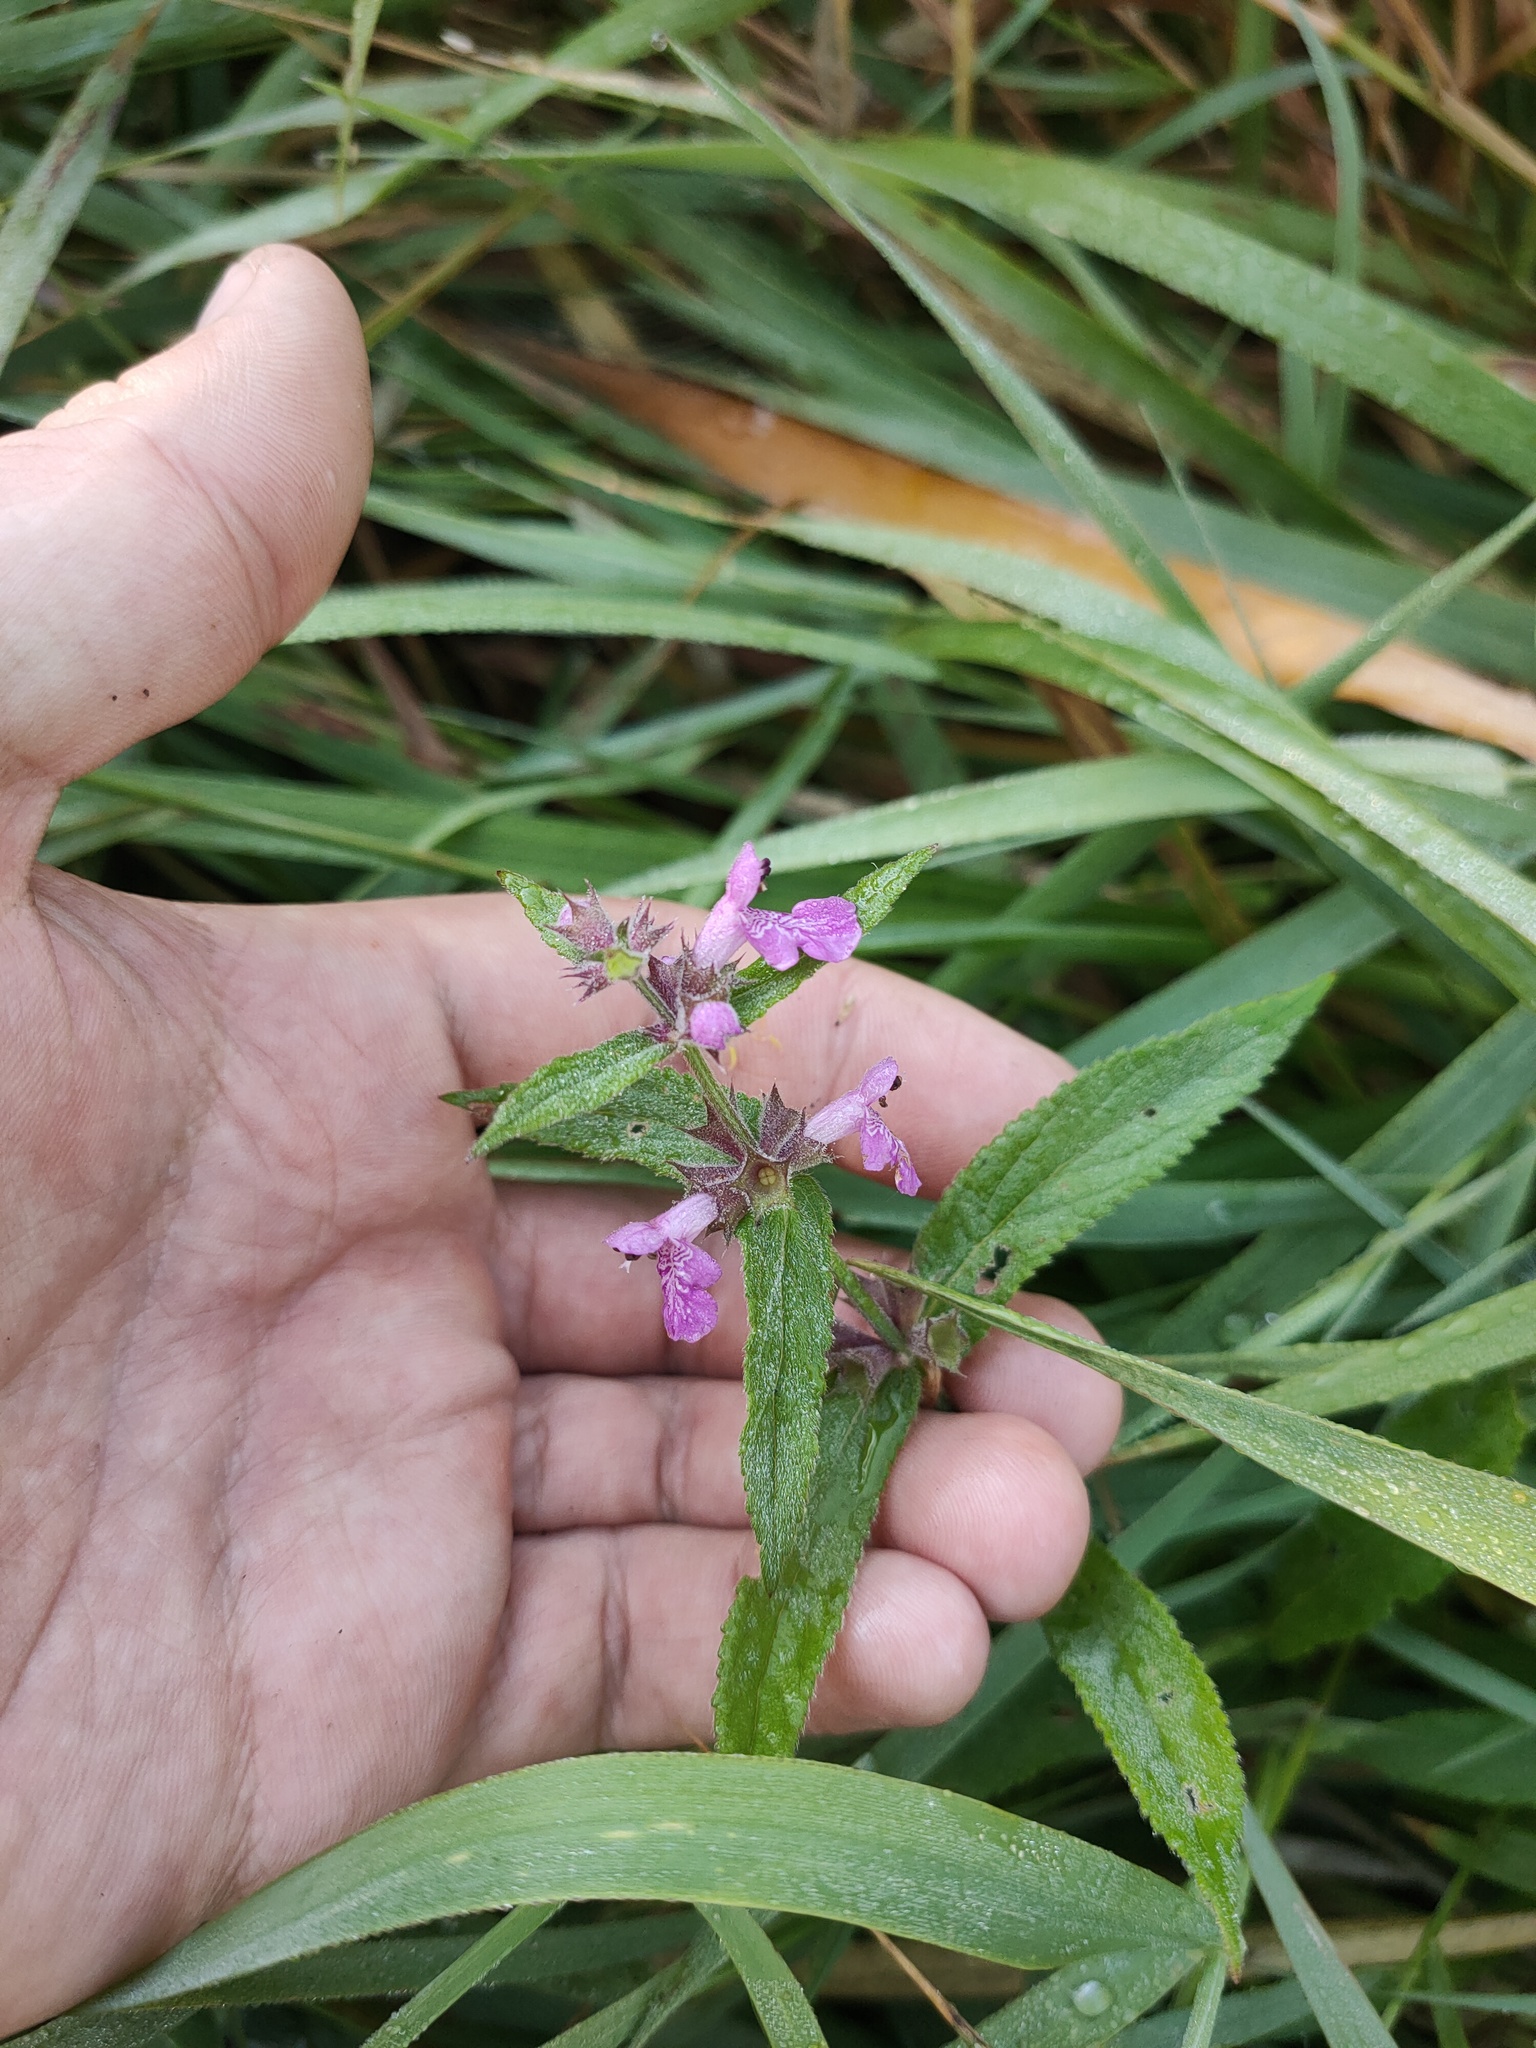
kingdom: Plantae
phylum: Tracheophyta
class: Magnoliopsida
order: Lamiales
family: Lamiaceae
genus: Stachys
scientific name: Stachys palustris
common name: Marsh woundwort
